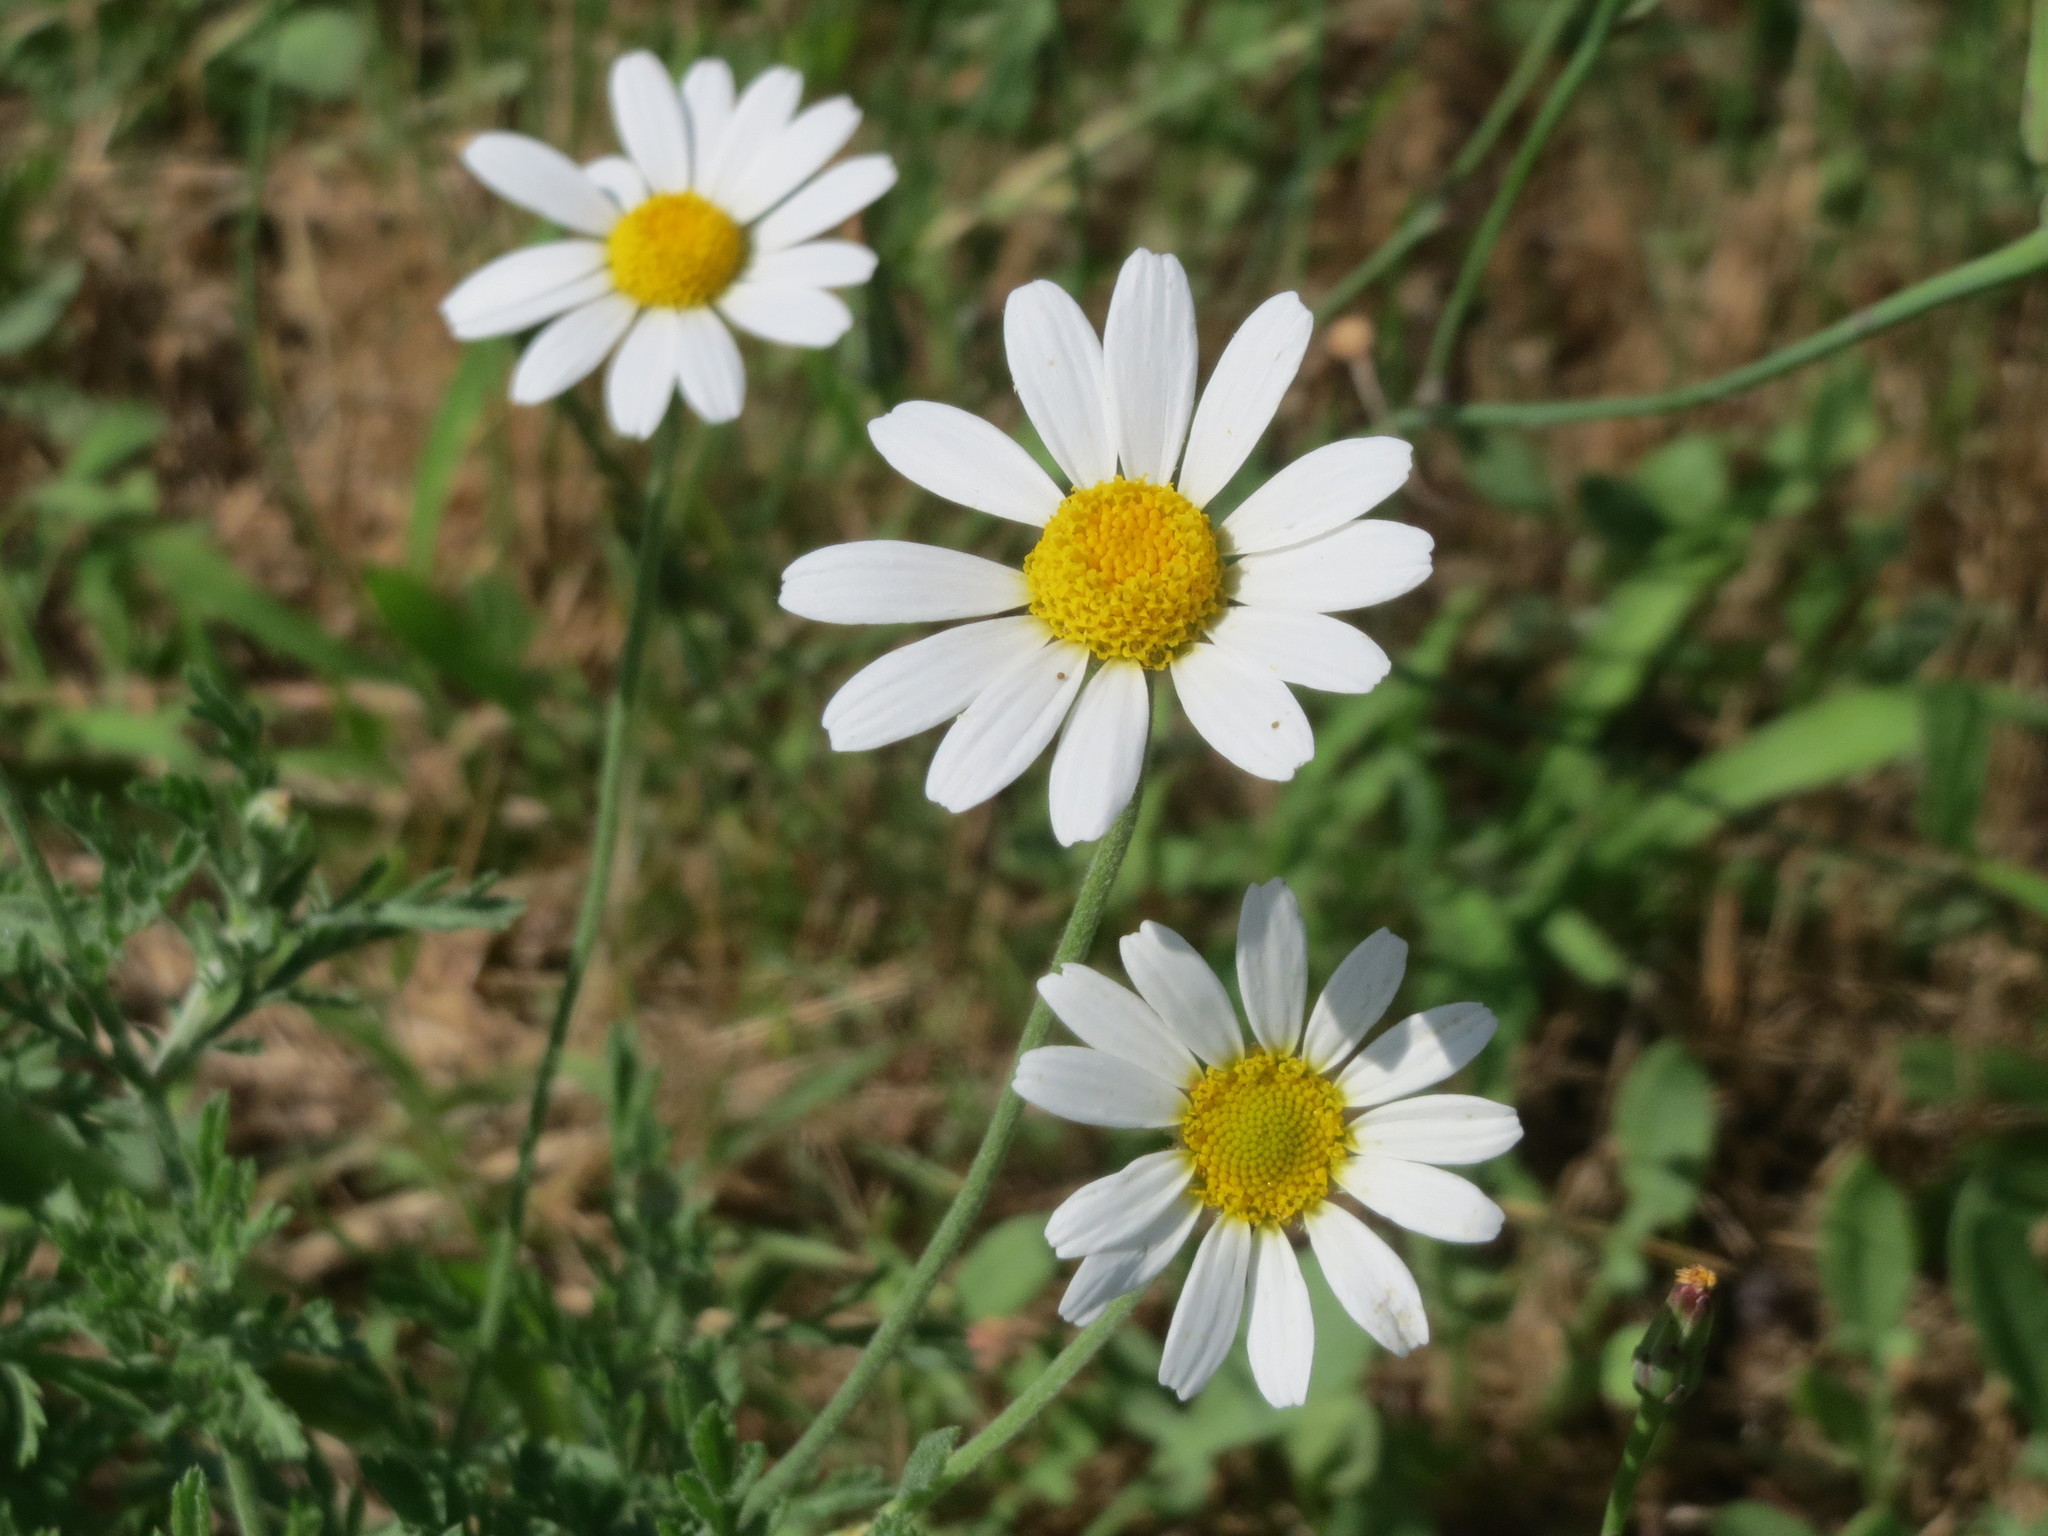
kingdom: Plantae
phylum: Tracheophyta
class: Magnoliopsida
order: Asterales
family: Asteraceae
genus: Anthemis
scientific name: Anthemis arvensis
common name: Corn chamomile
